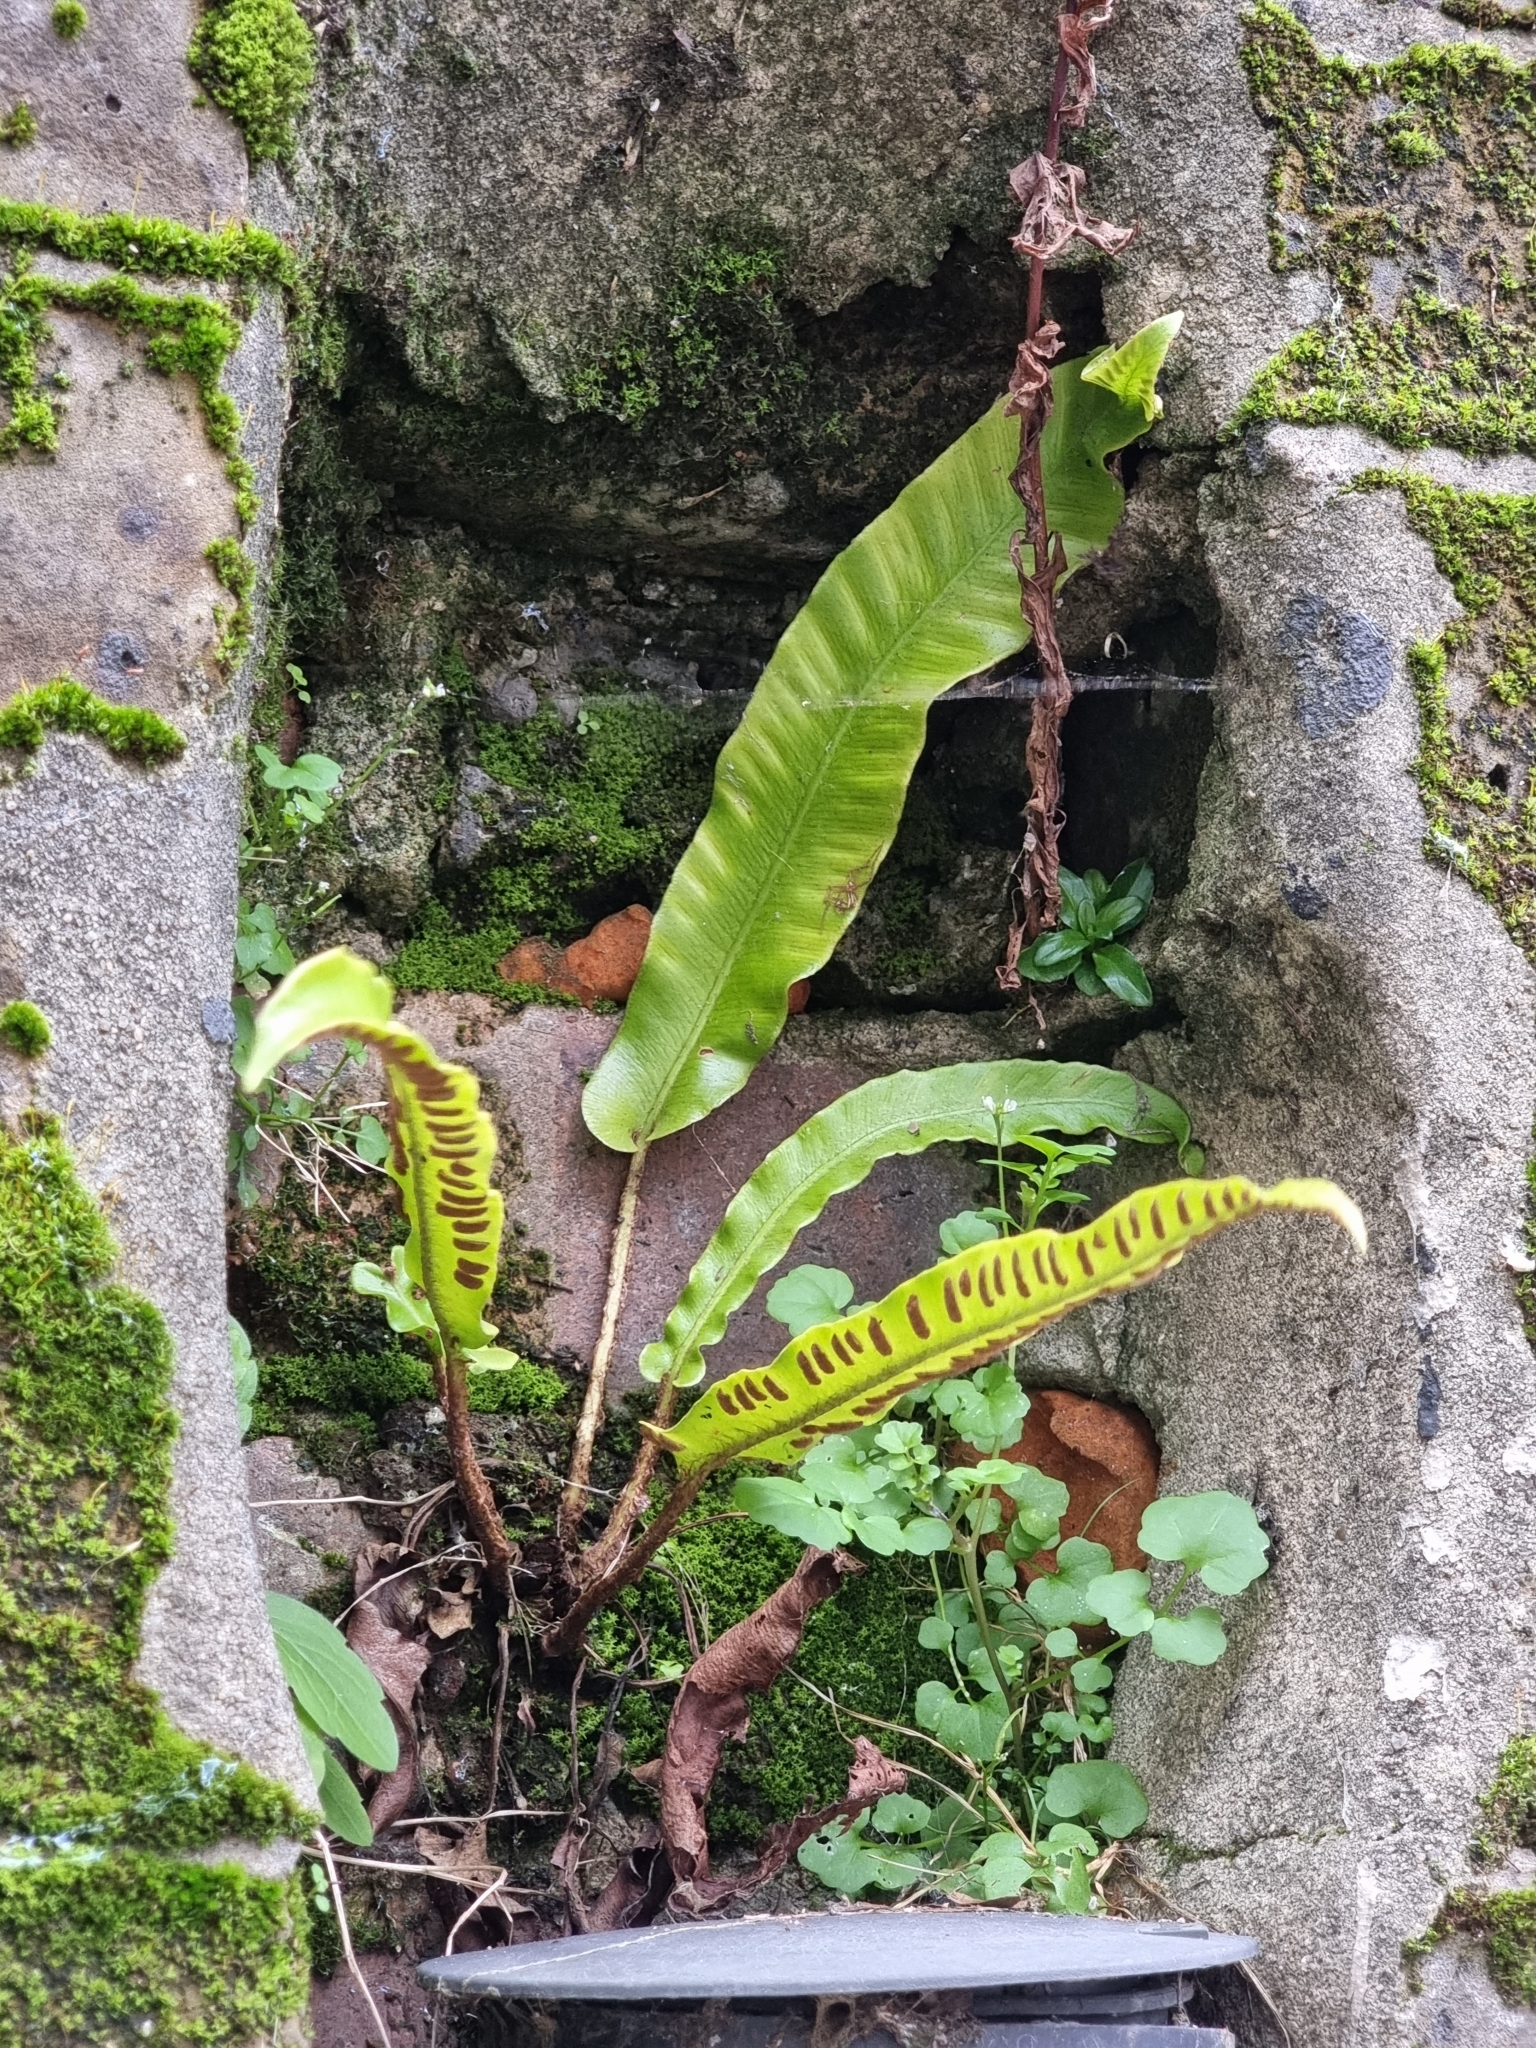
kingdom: Plantae
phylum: Tracheophyta
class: Polypodiopsida
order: Polypodiales
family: Aspleniaceae
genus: Asplenium
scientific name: Asplenium scolopendrium
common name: Hart's-tongue fern
